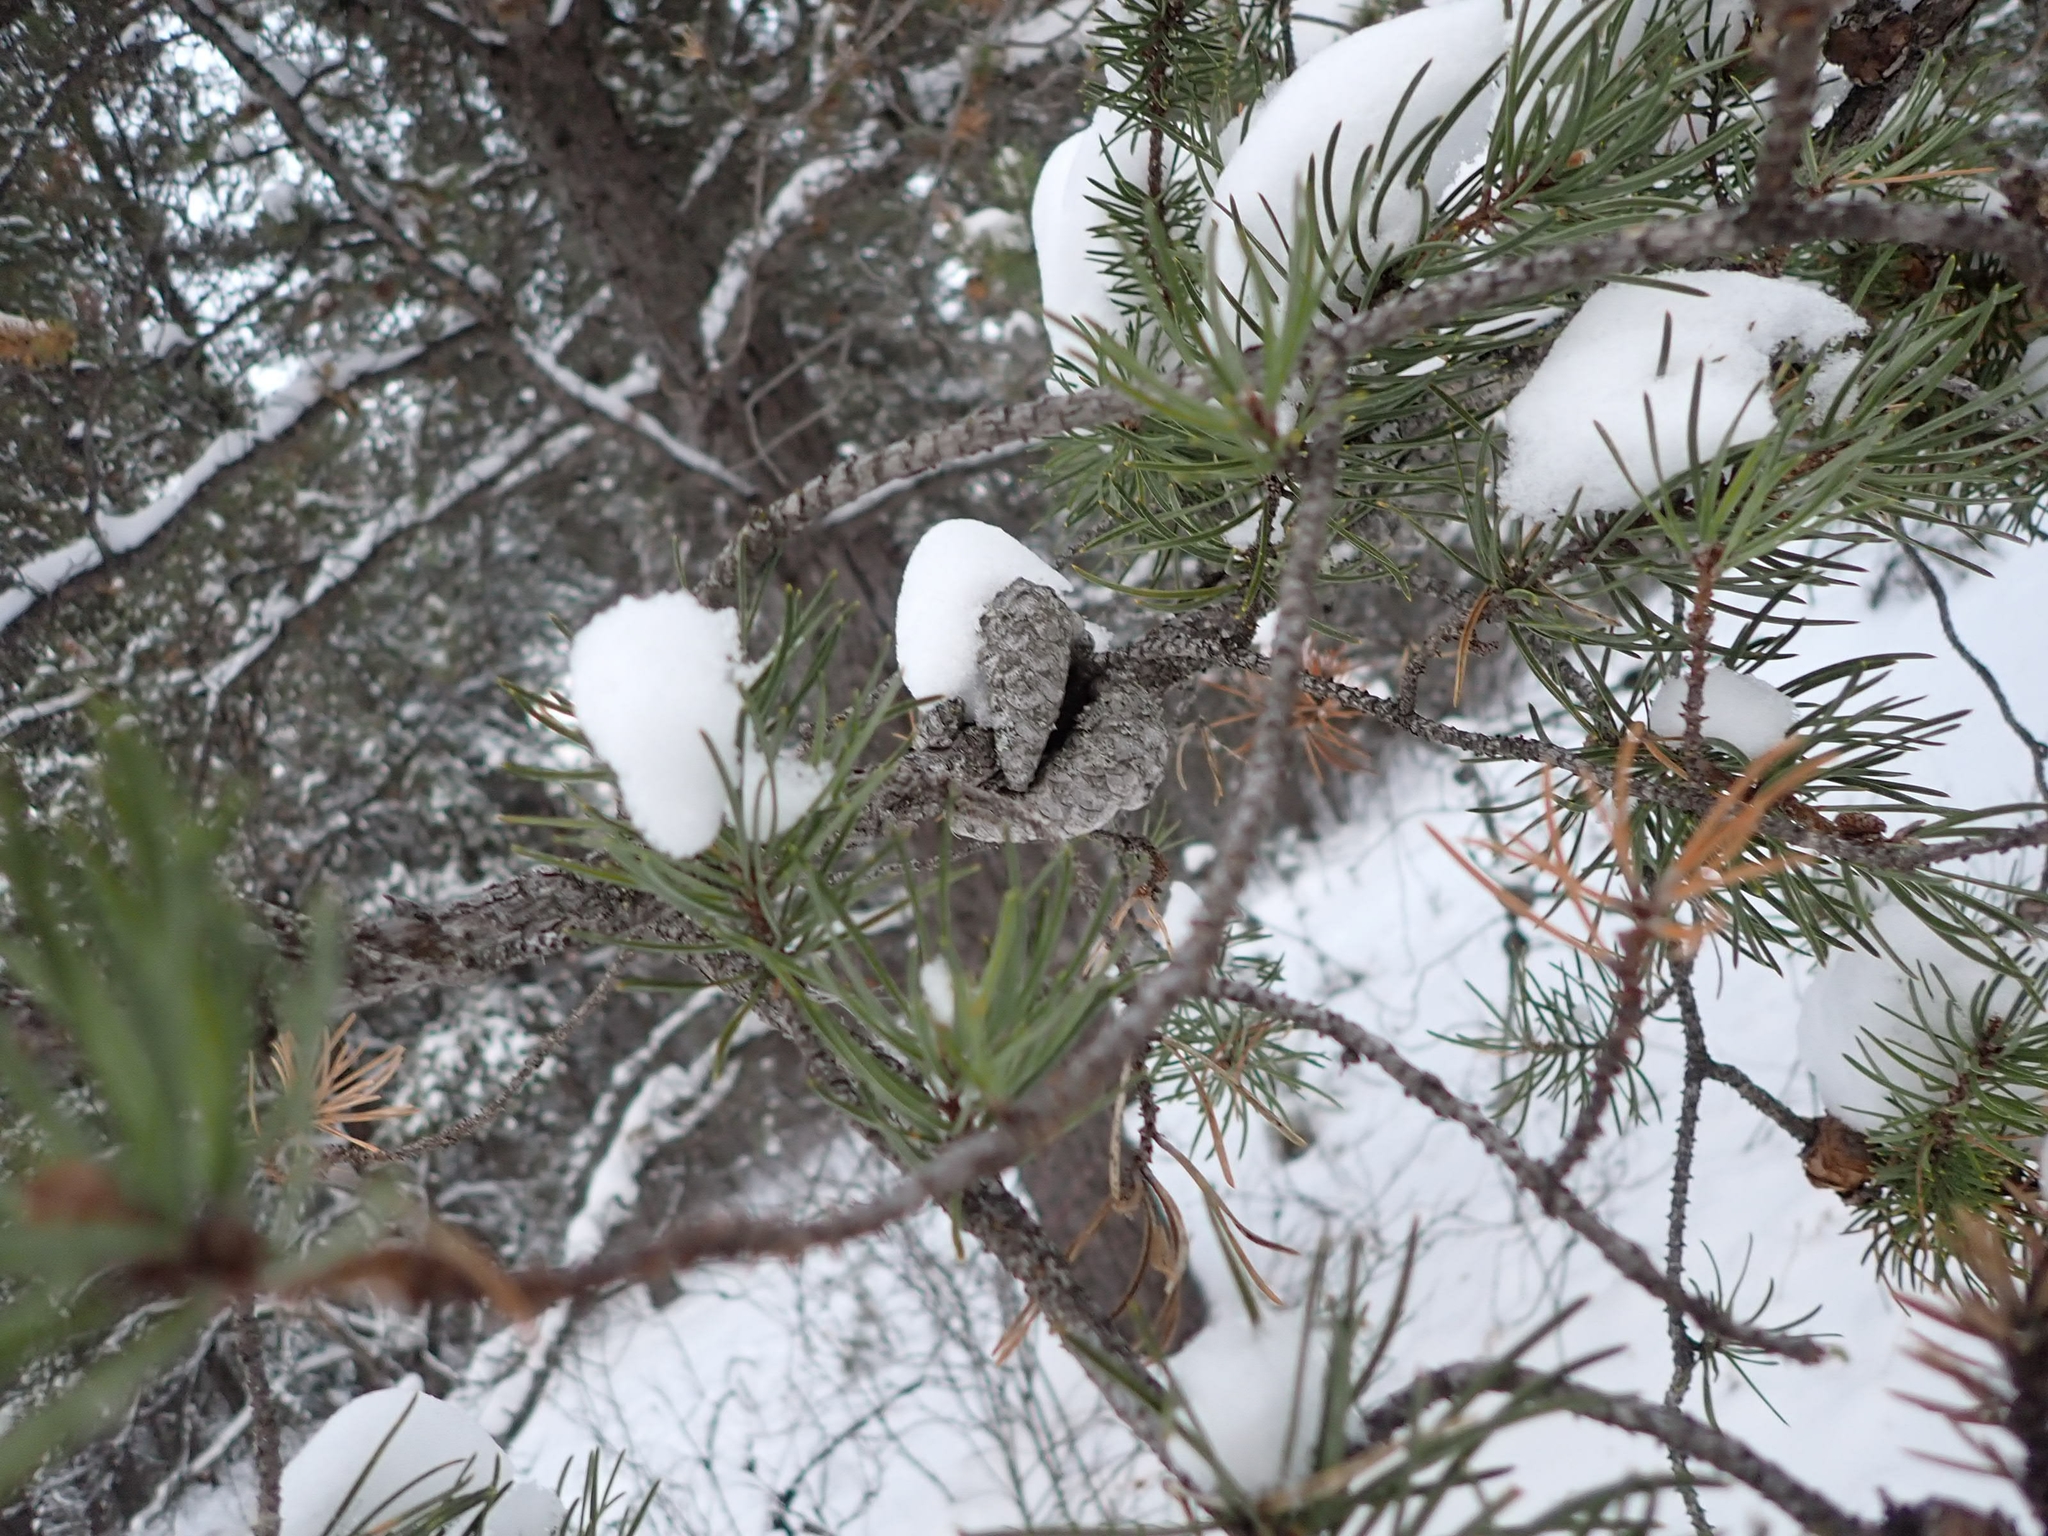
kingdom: Plantae
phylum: Tracheophyta
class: Pinopsida
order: Pinales
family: Pinaceae
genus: Pinus
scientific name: Pinus banksiana
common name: Jack pine
